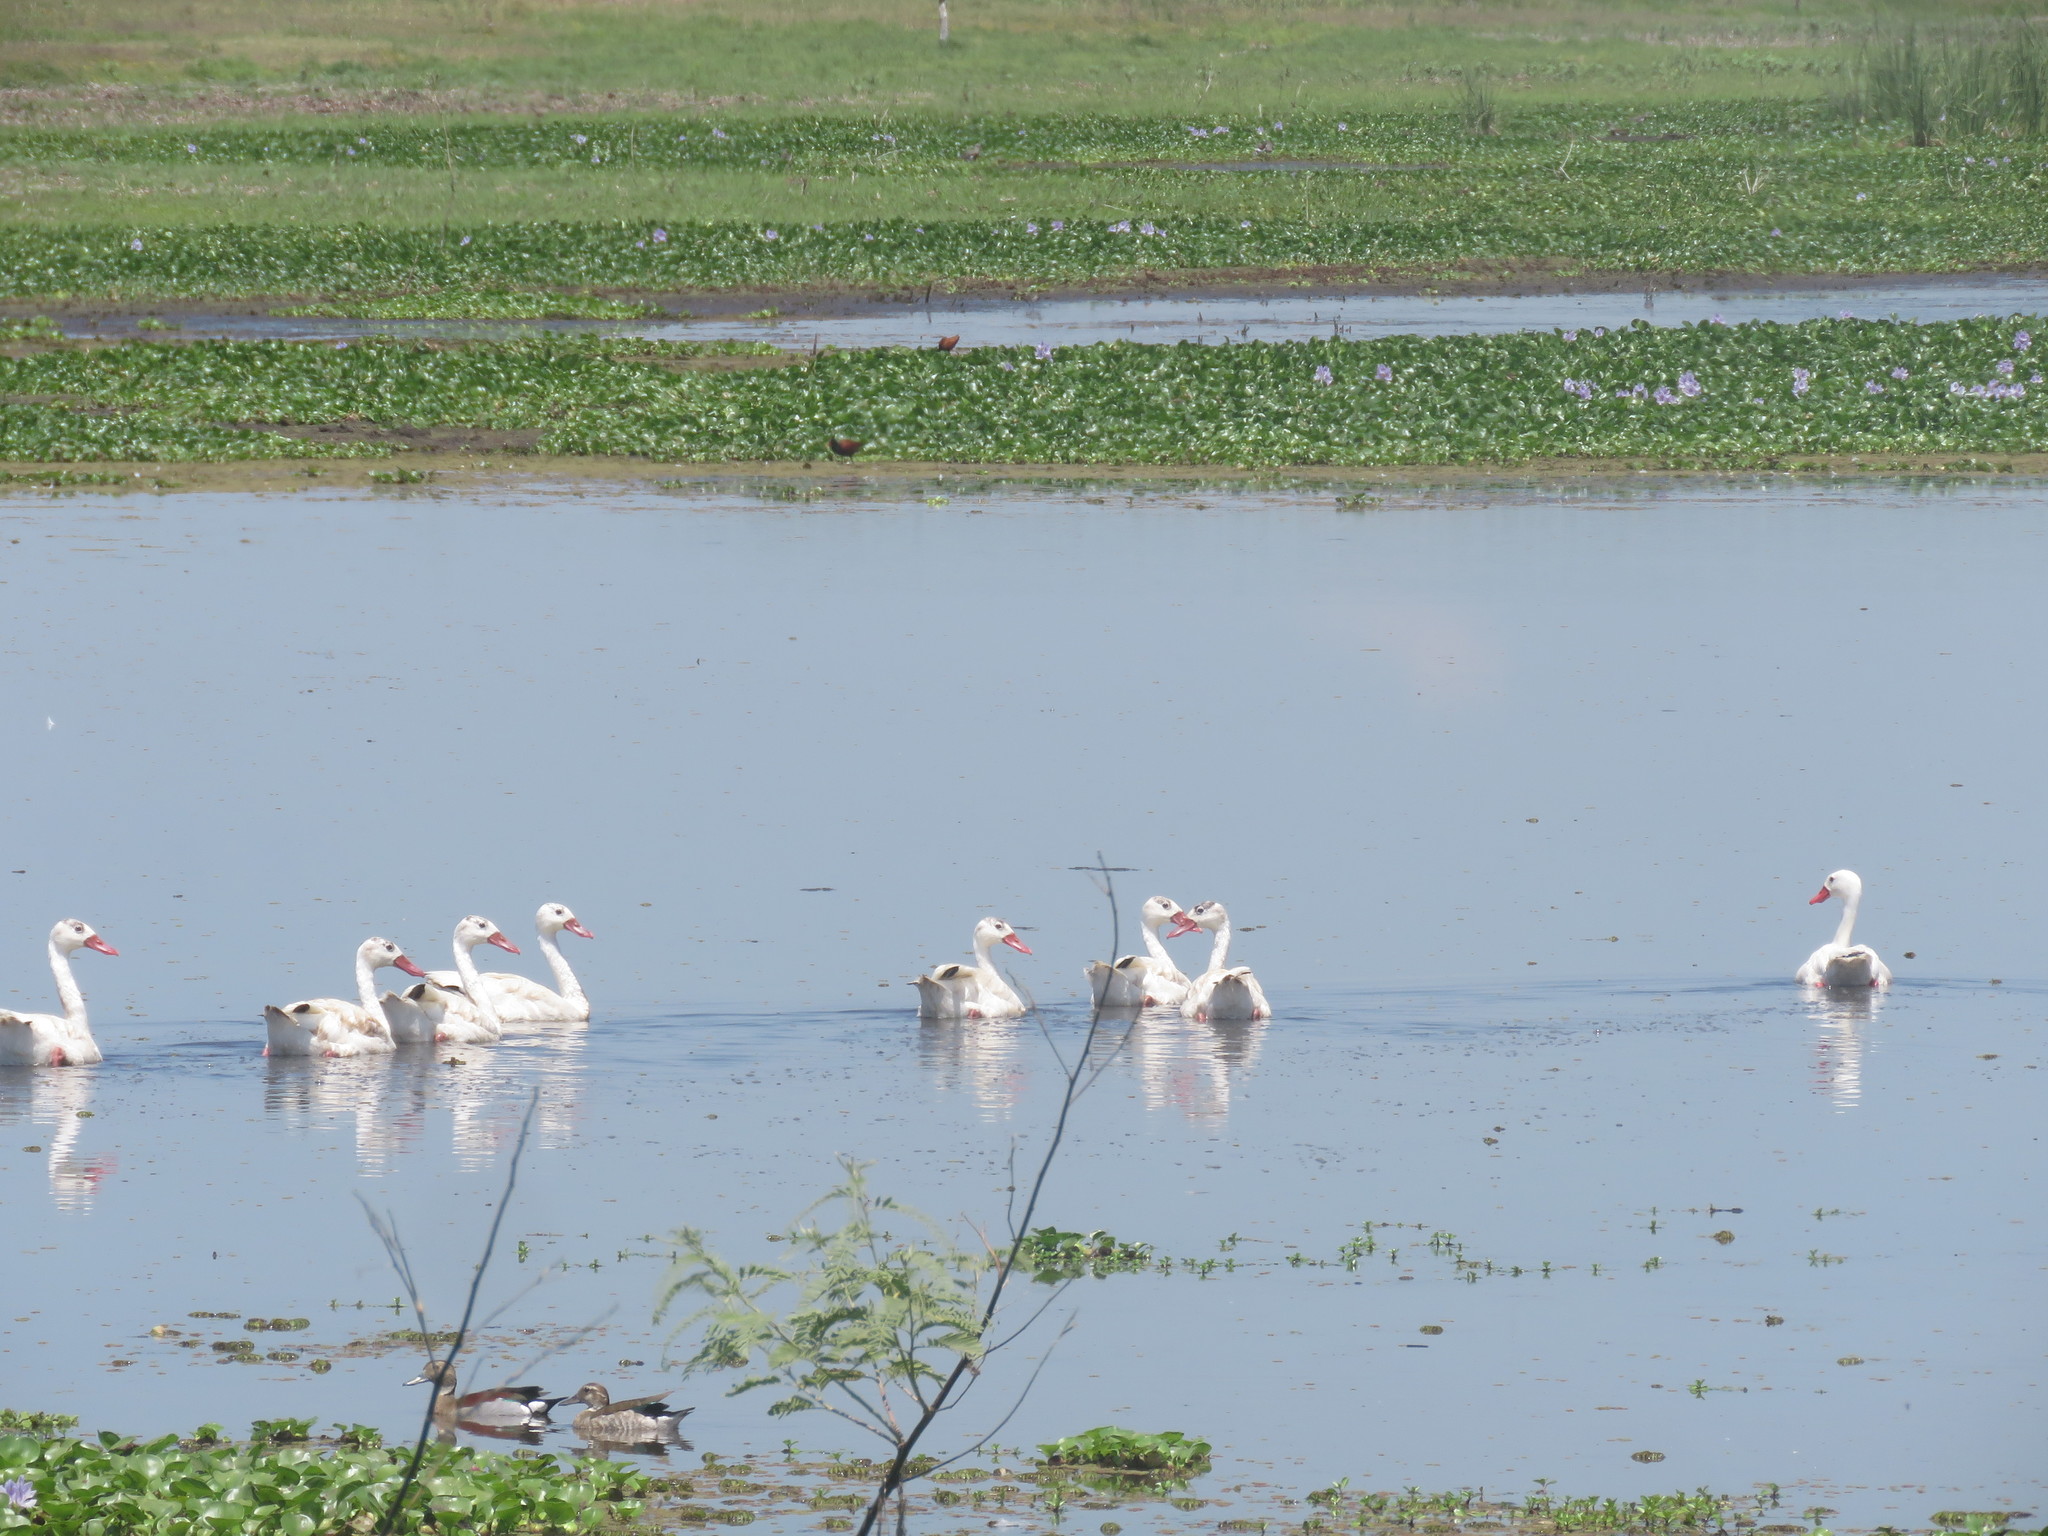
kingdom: Animalia
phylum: Chordata
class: Aves
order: Anseriformes
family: Anatidae
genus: Coscoroba
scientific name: Coscoroba coscoroba
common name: Coscoroba swan
